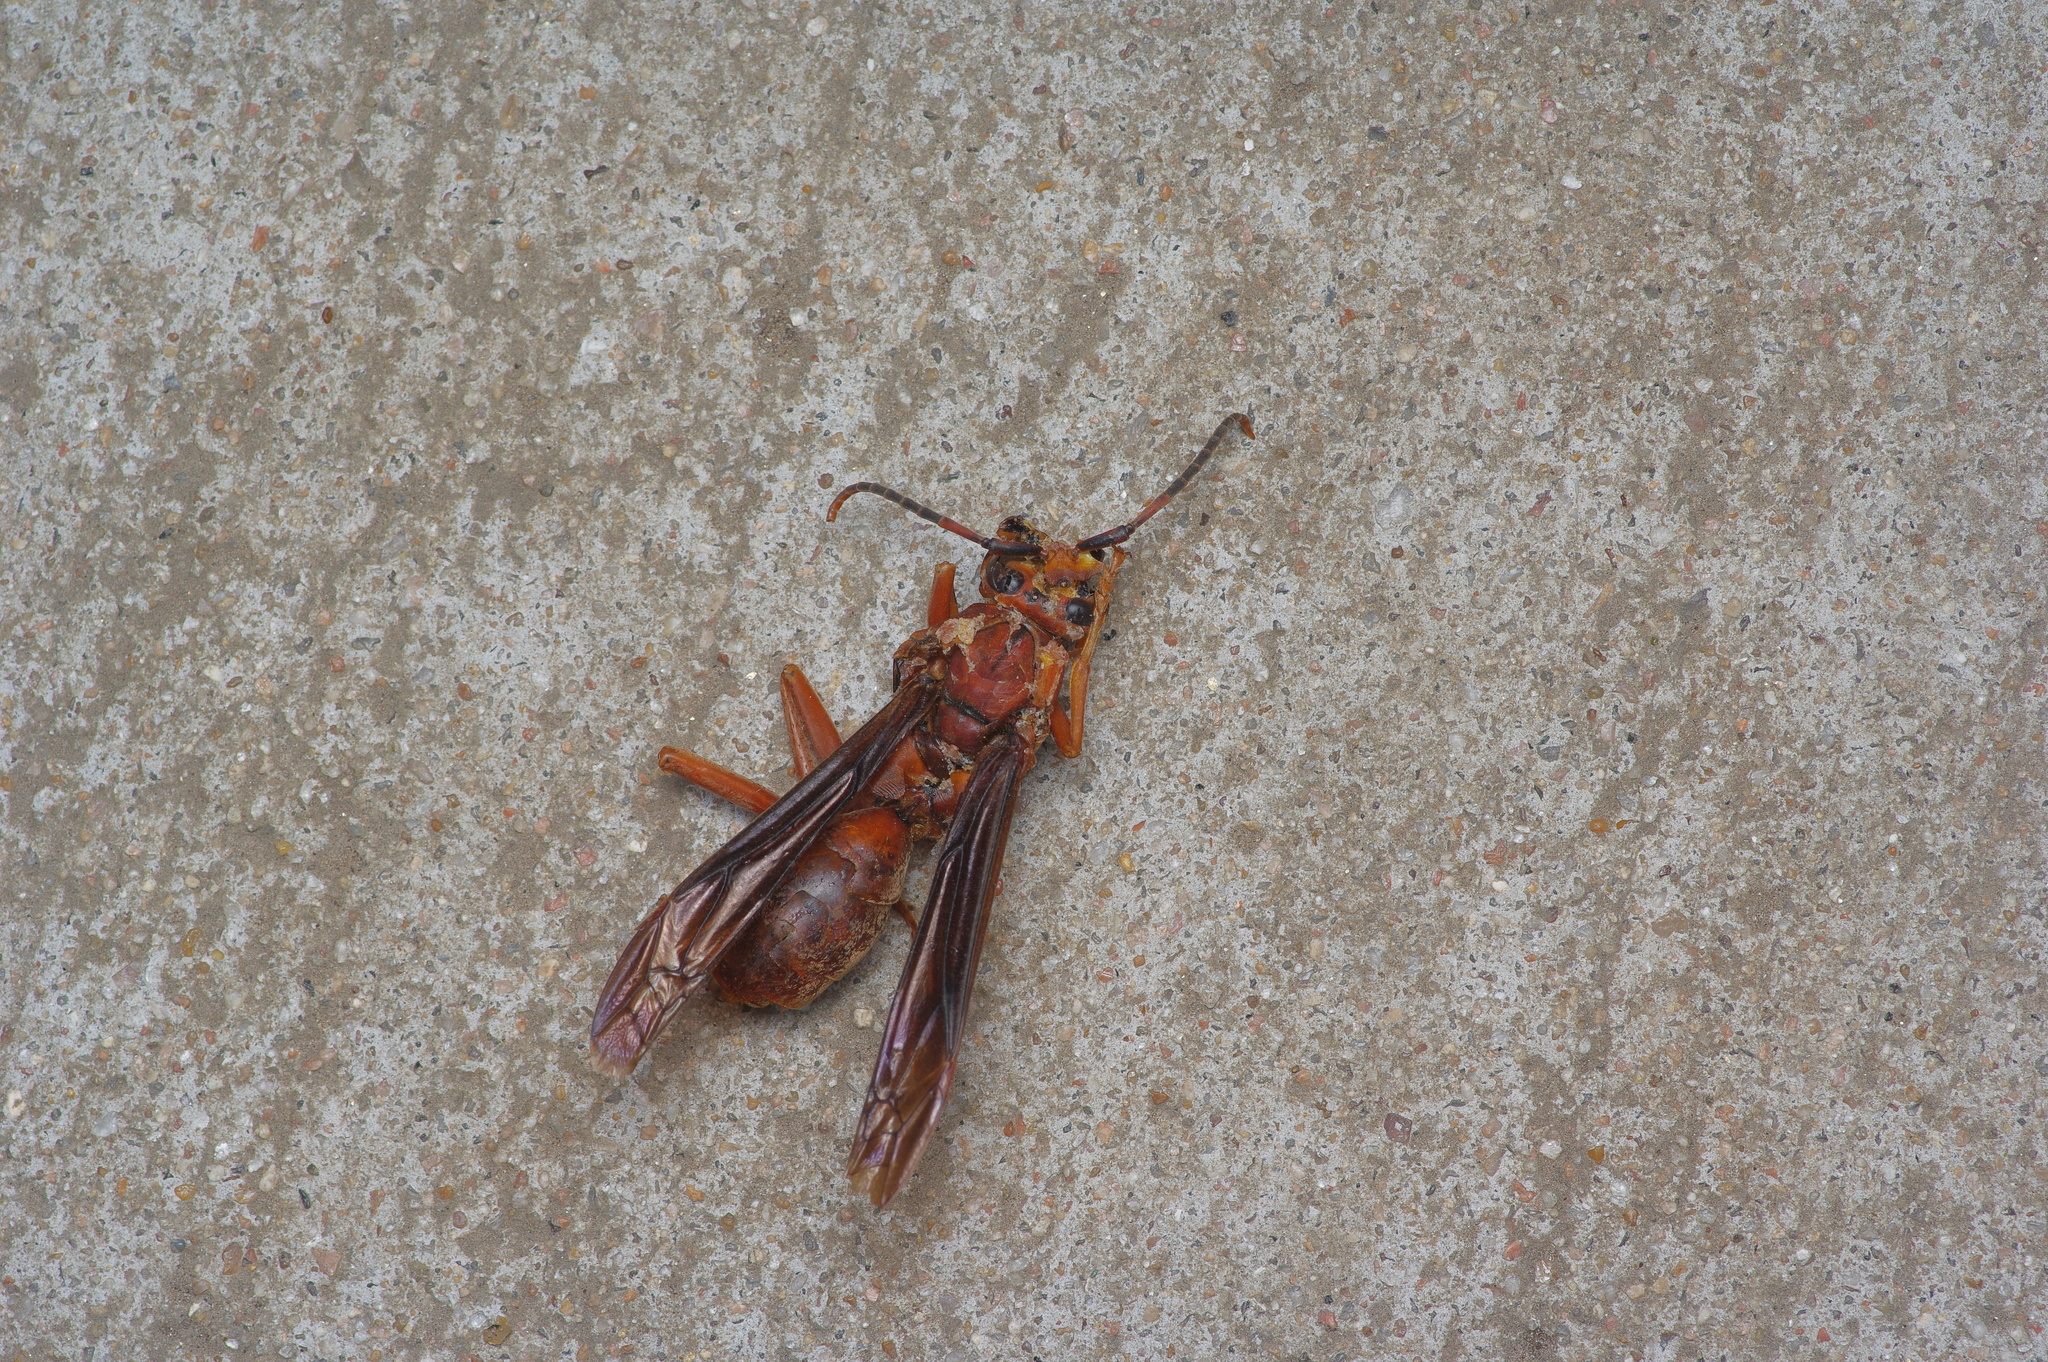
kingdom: Animalia
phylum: Arthropoda
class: Insecta
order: Hymenoptera
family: Vespidae
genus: Fuscopolistes
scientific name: Fuscopolistes
